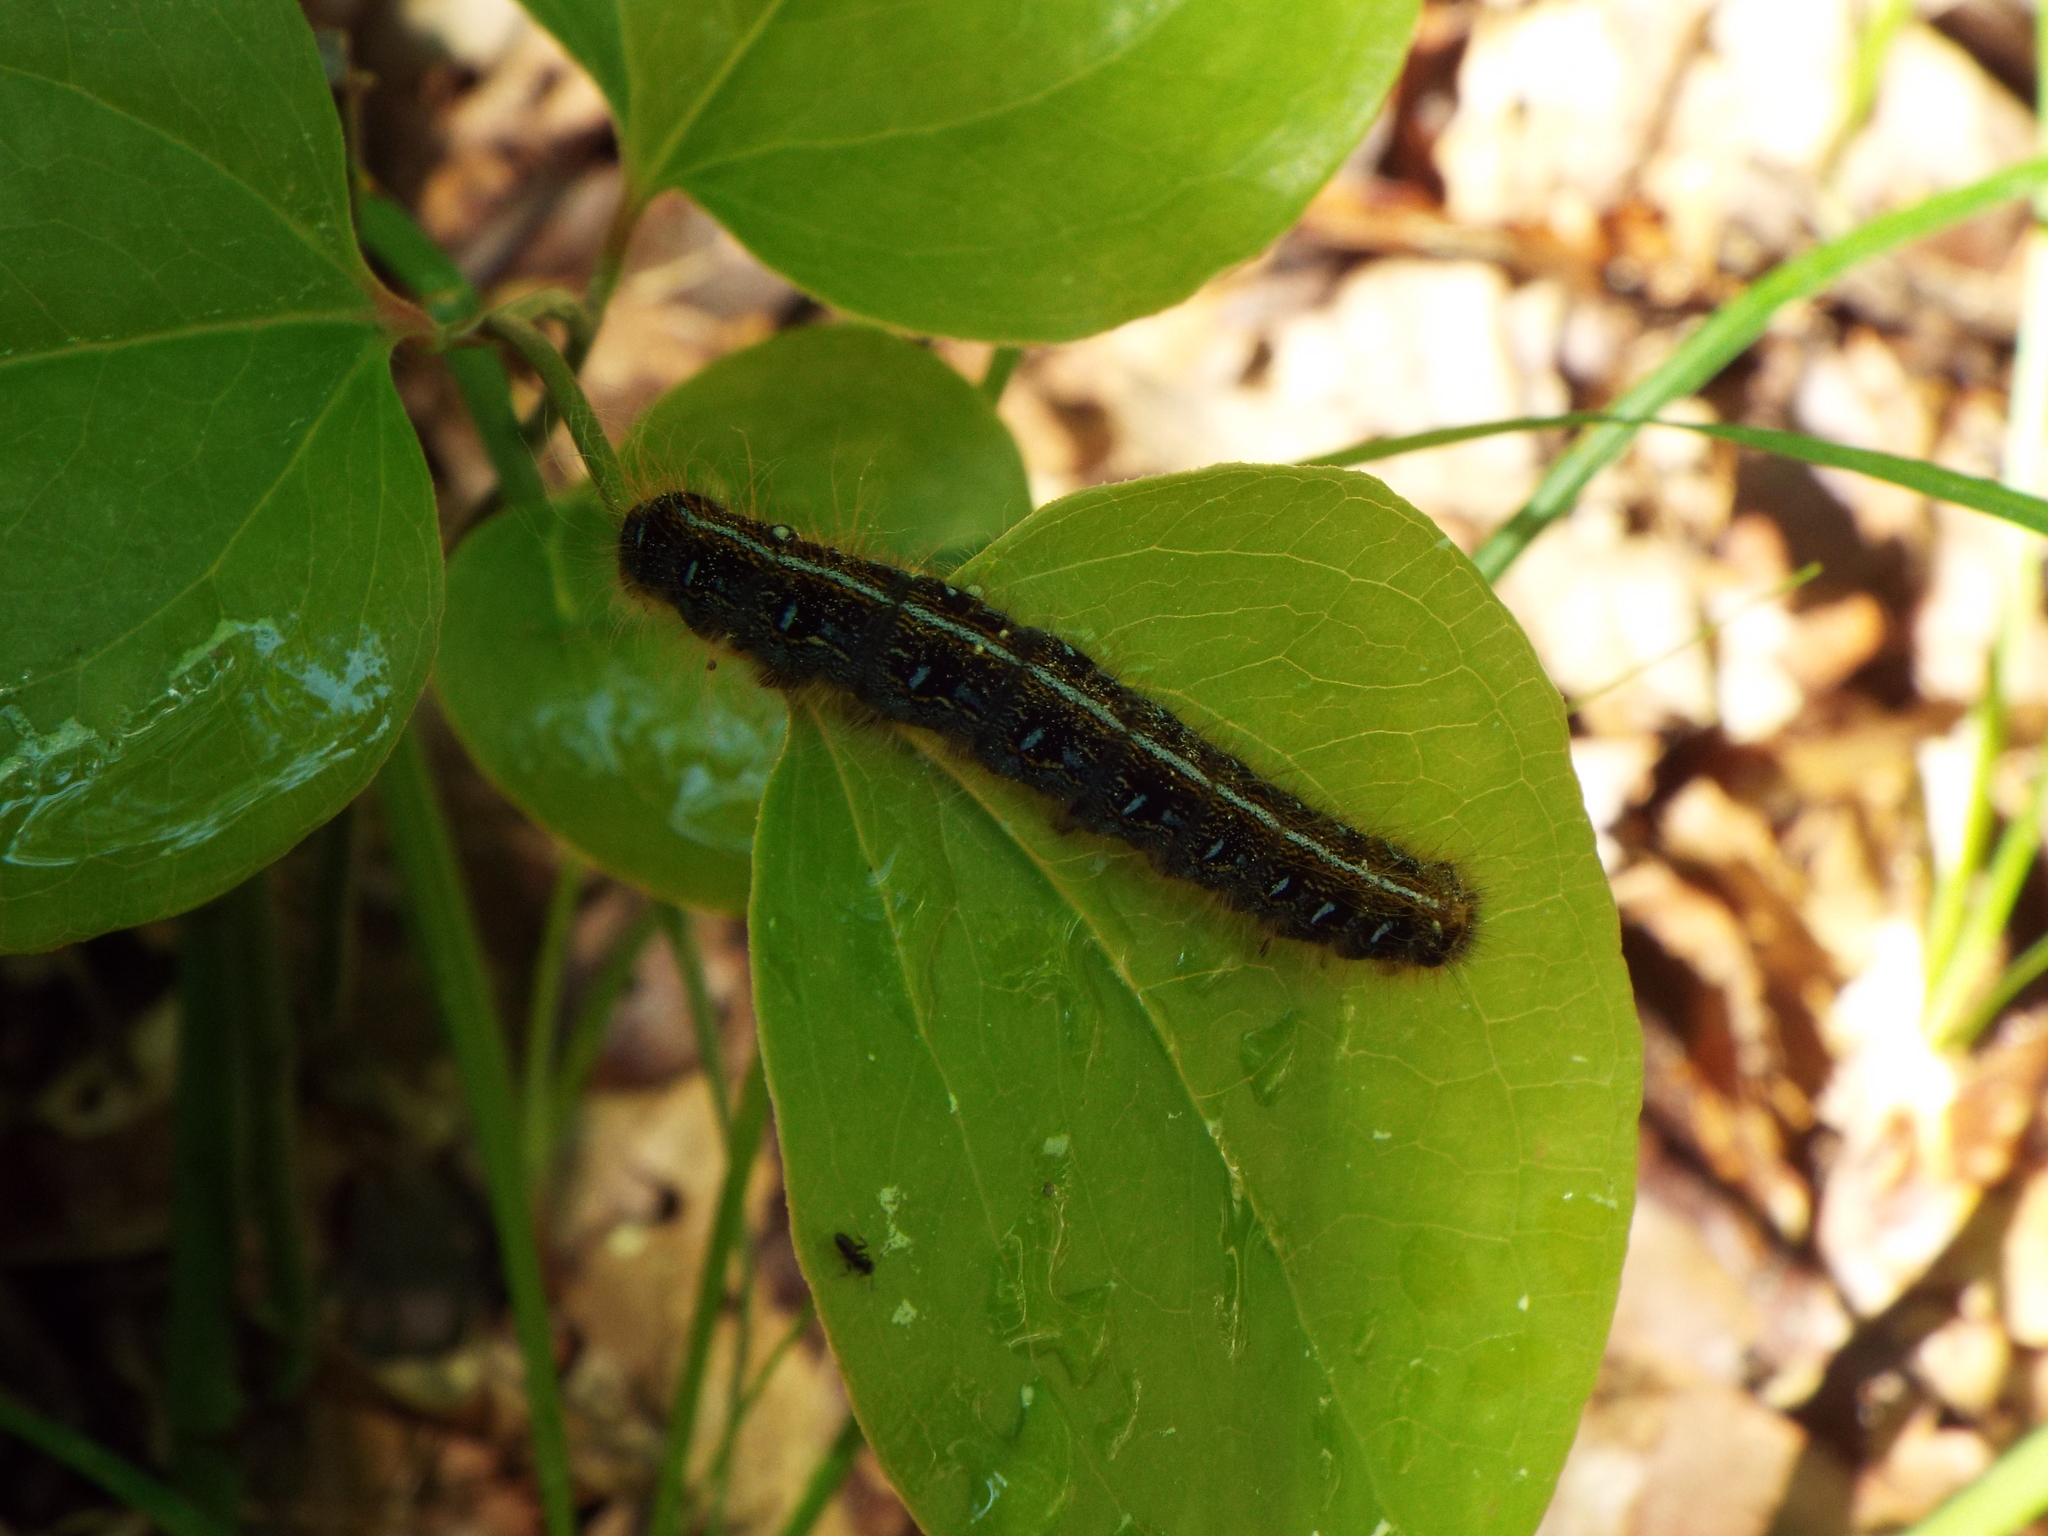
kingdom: Animalia
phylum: Arthropoda
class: Insecta
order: Lepidoptera
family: Lasiocampidae
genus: Malacosoma
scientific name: Malacosoma americana
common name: Eastern tent caterpillar moth
